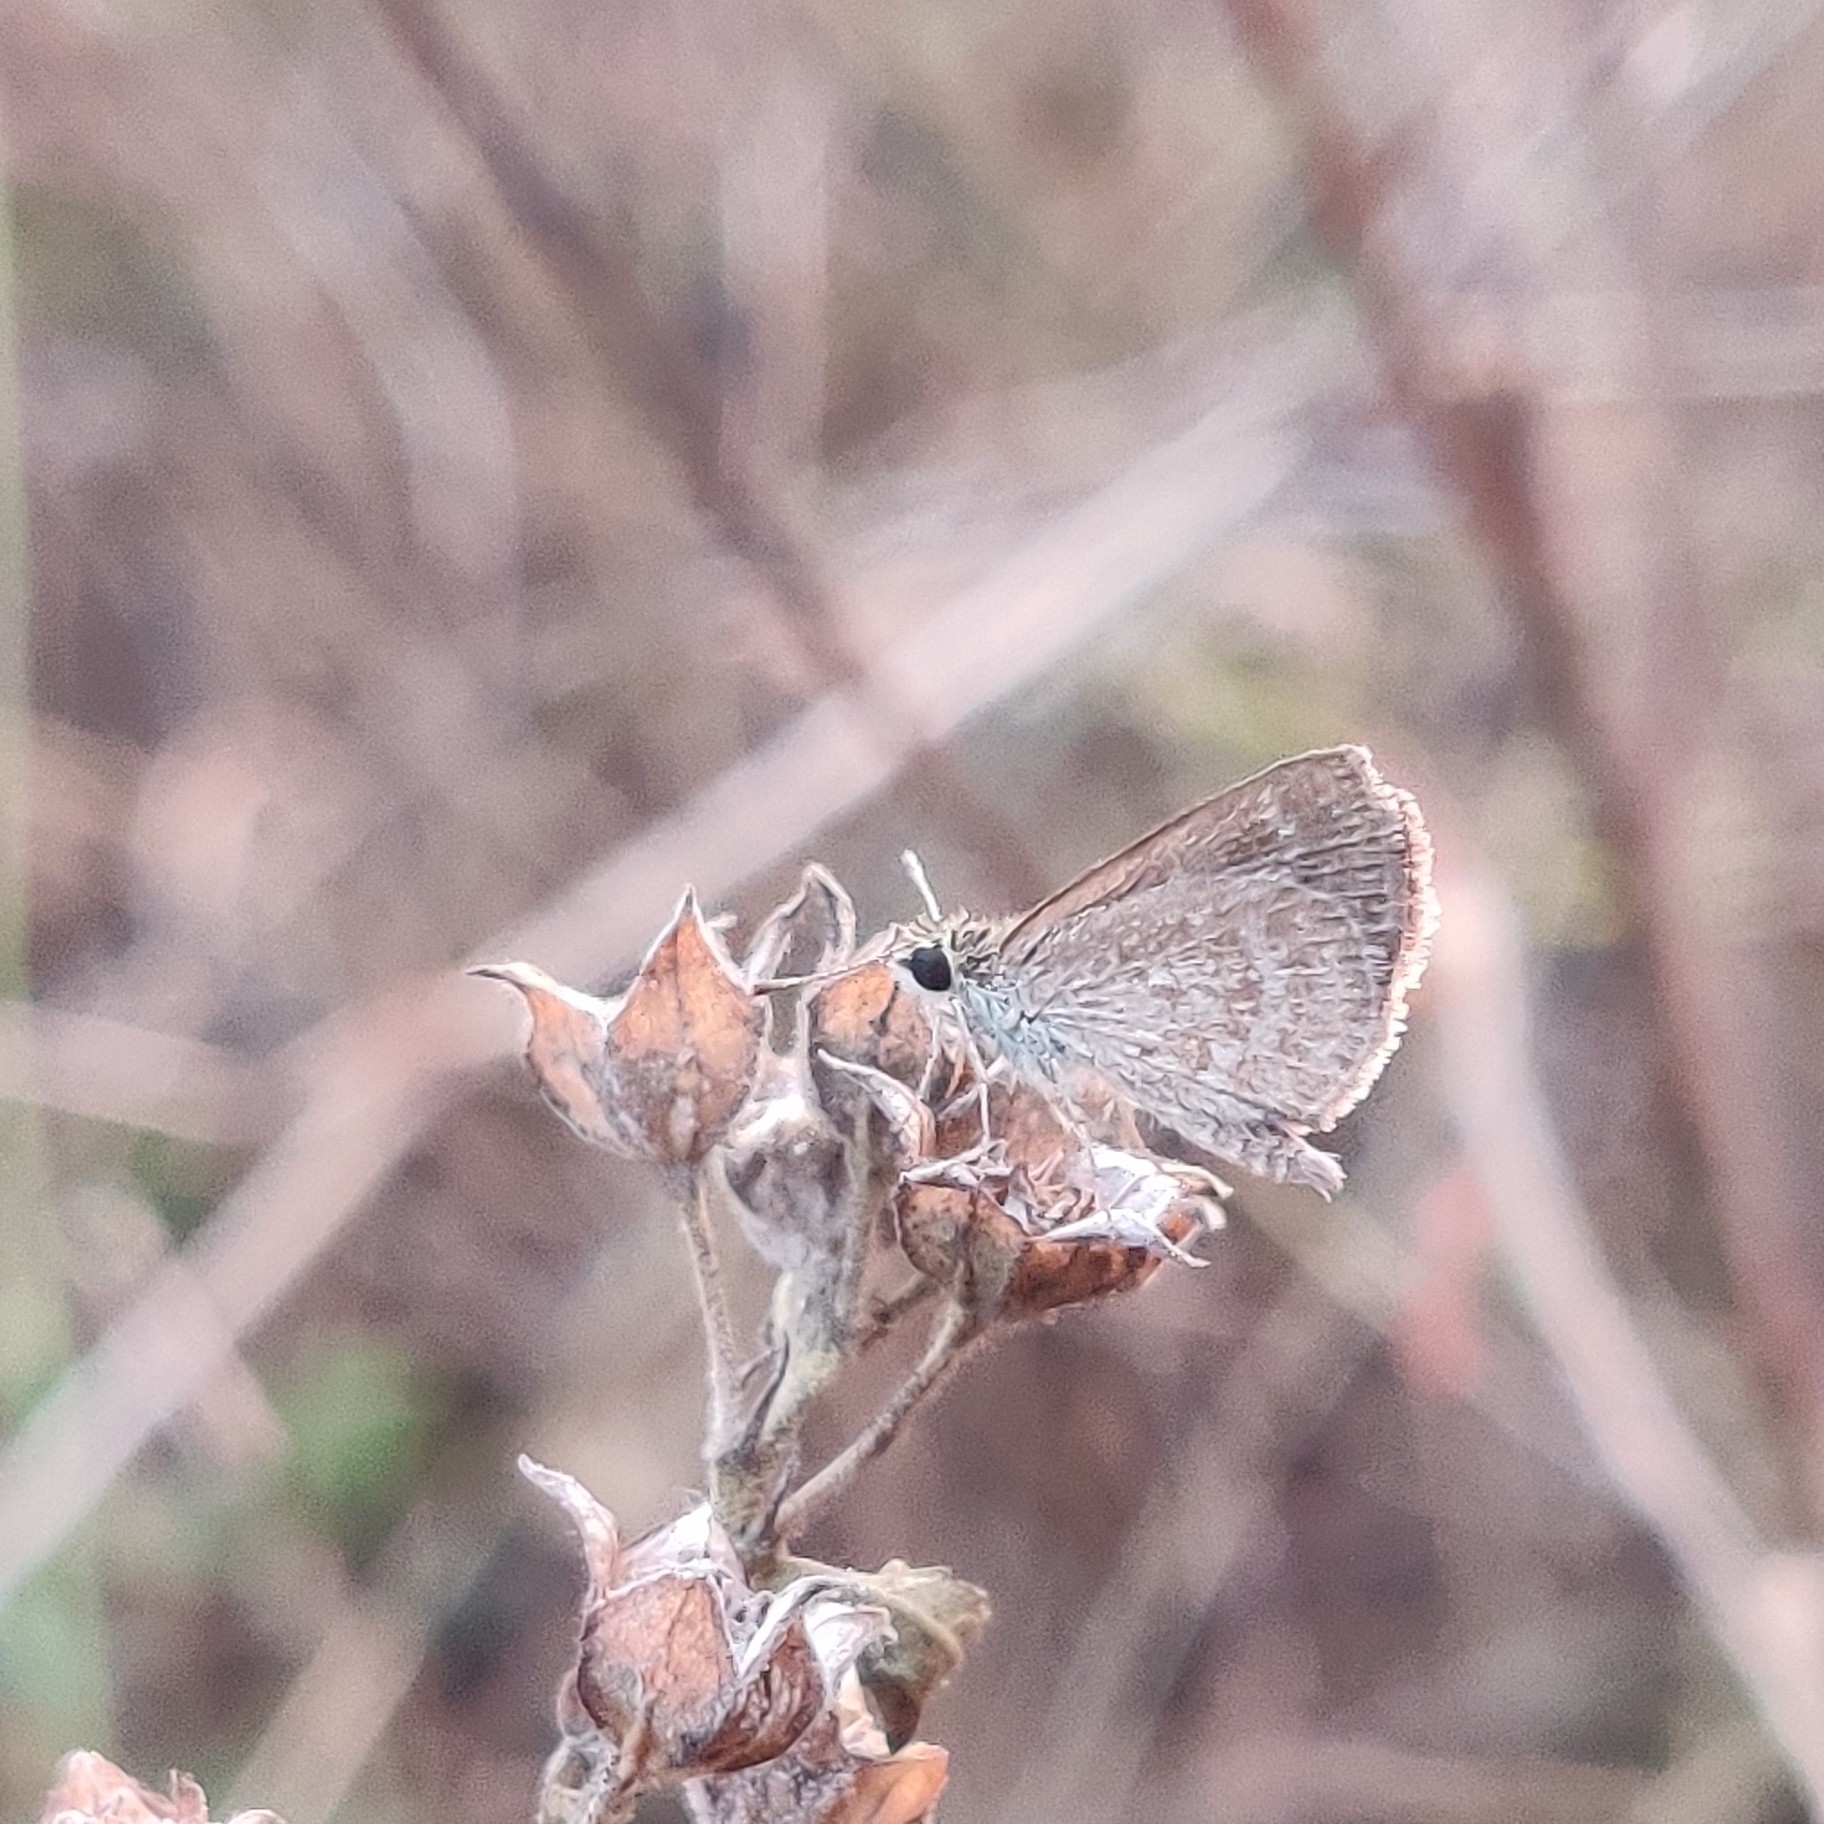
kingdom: Animalia
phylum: Arthropoda
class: Insecta
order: Lepidoptera
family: Hesperiidae
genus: Aeromachus
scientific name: Aeromachus pygmaeus
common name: Pygmy scrub hopper
